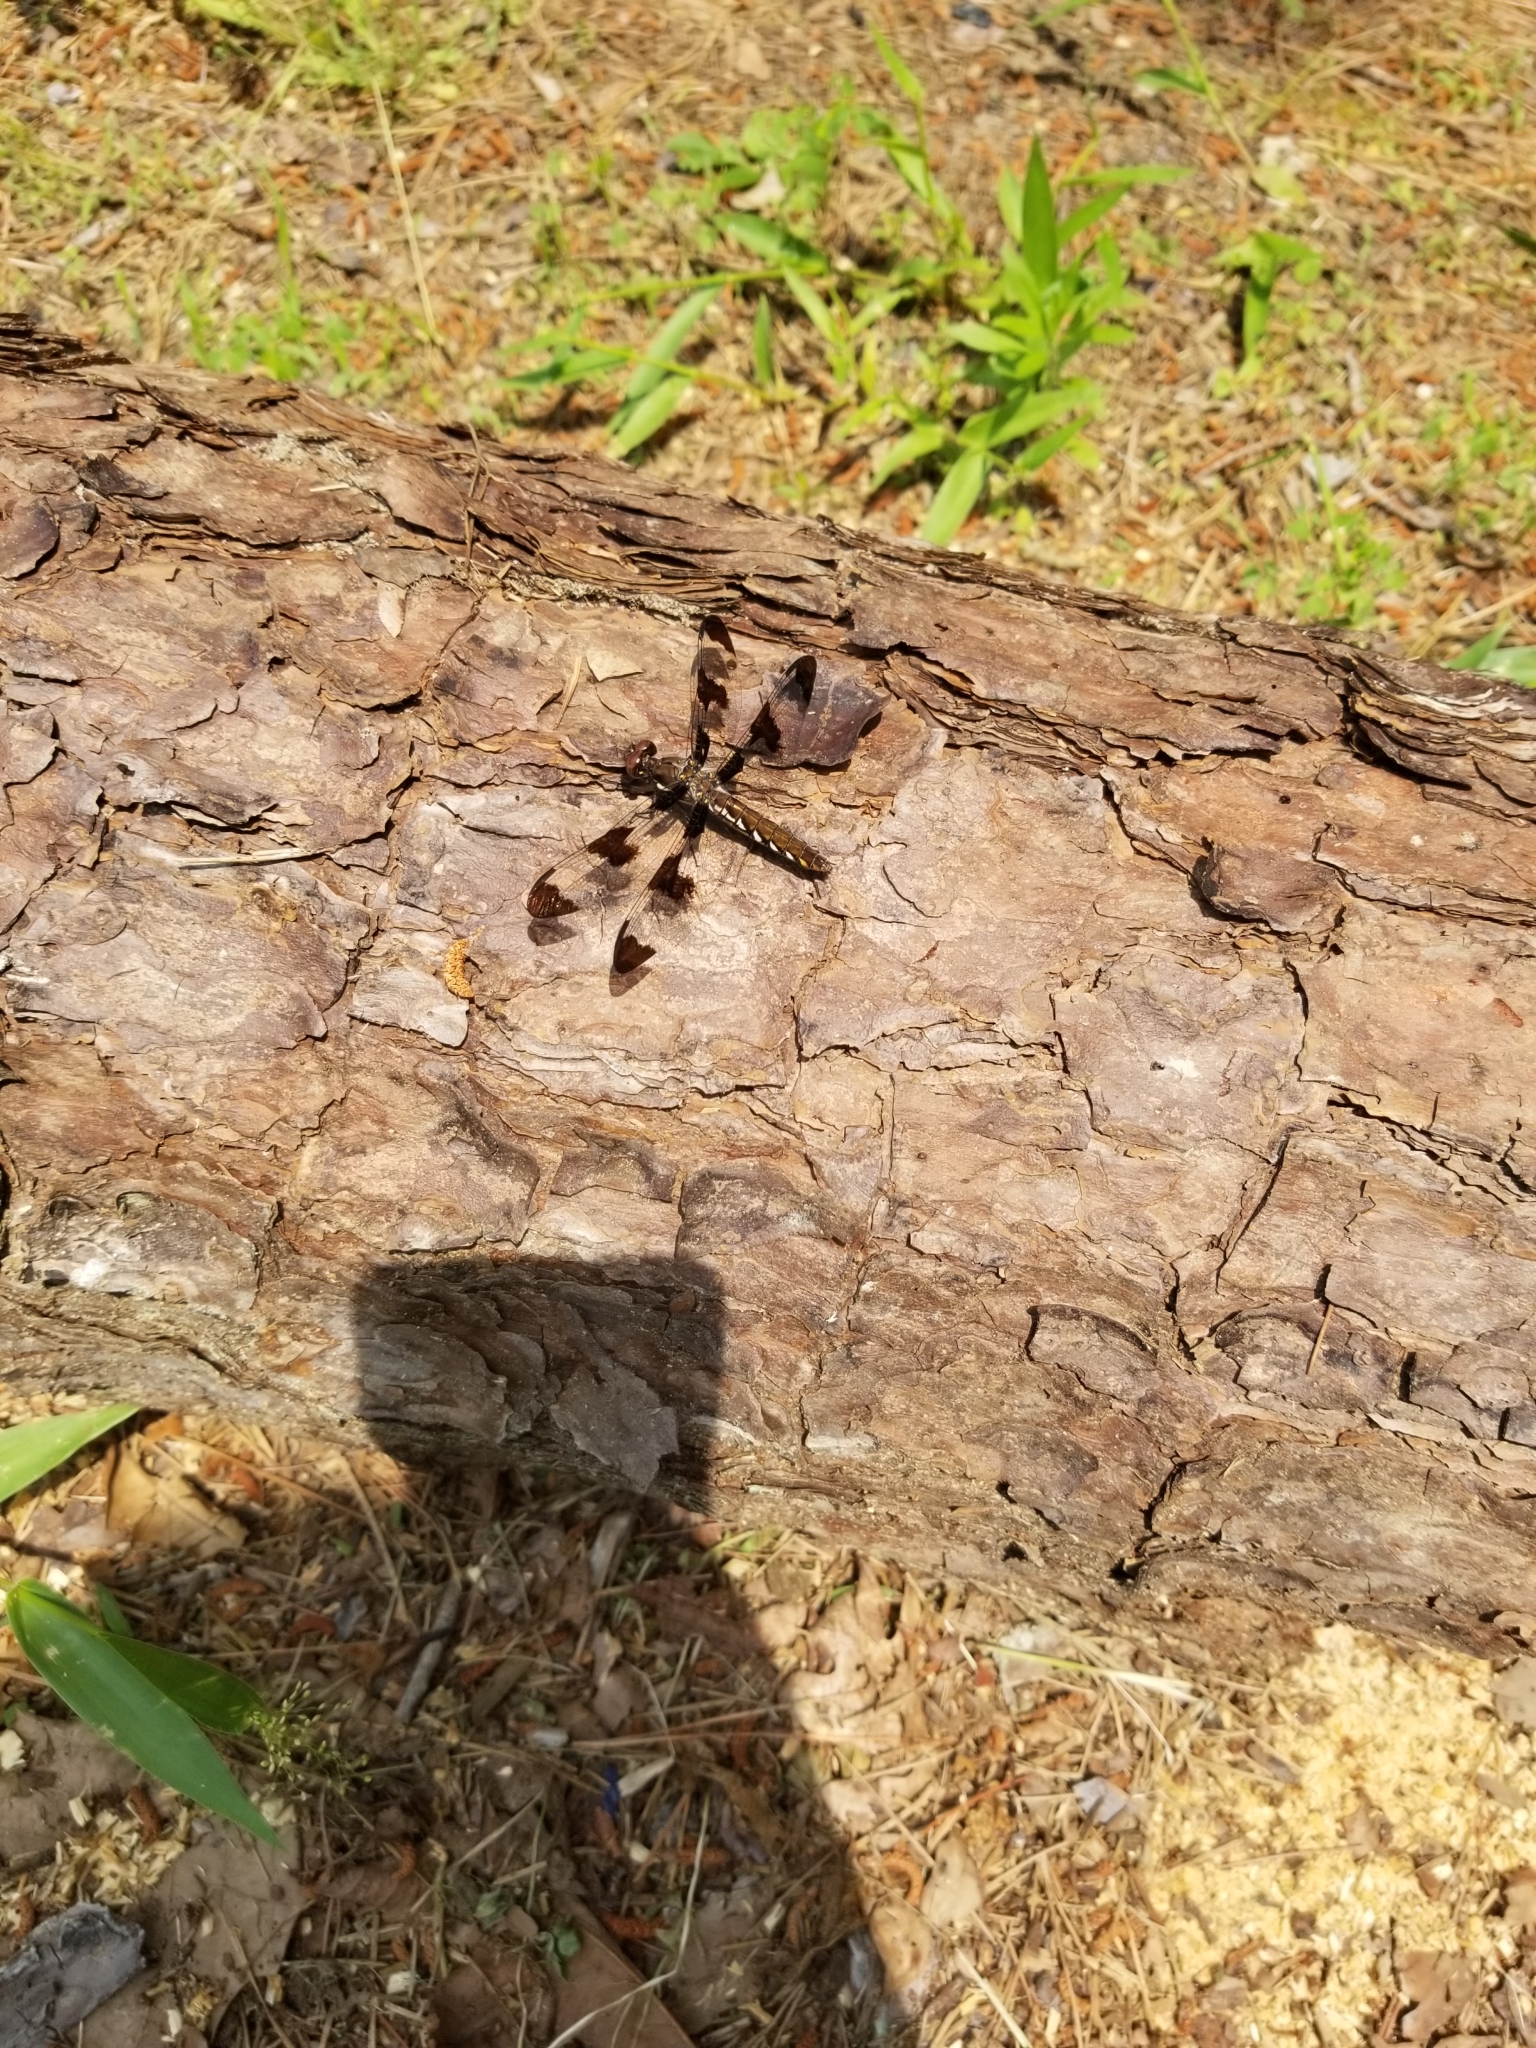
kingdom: Animalia
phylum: Arthropoda
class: Insecta
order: Odonata
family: Libellulidae
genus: Plathemis
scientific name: Plathemis lydia
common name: Common whitetail
